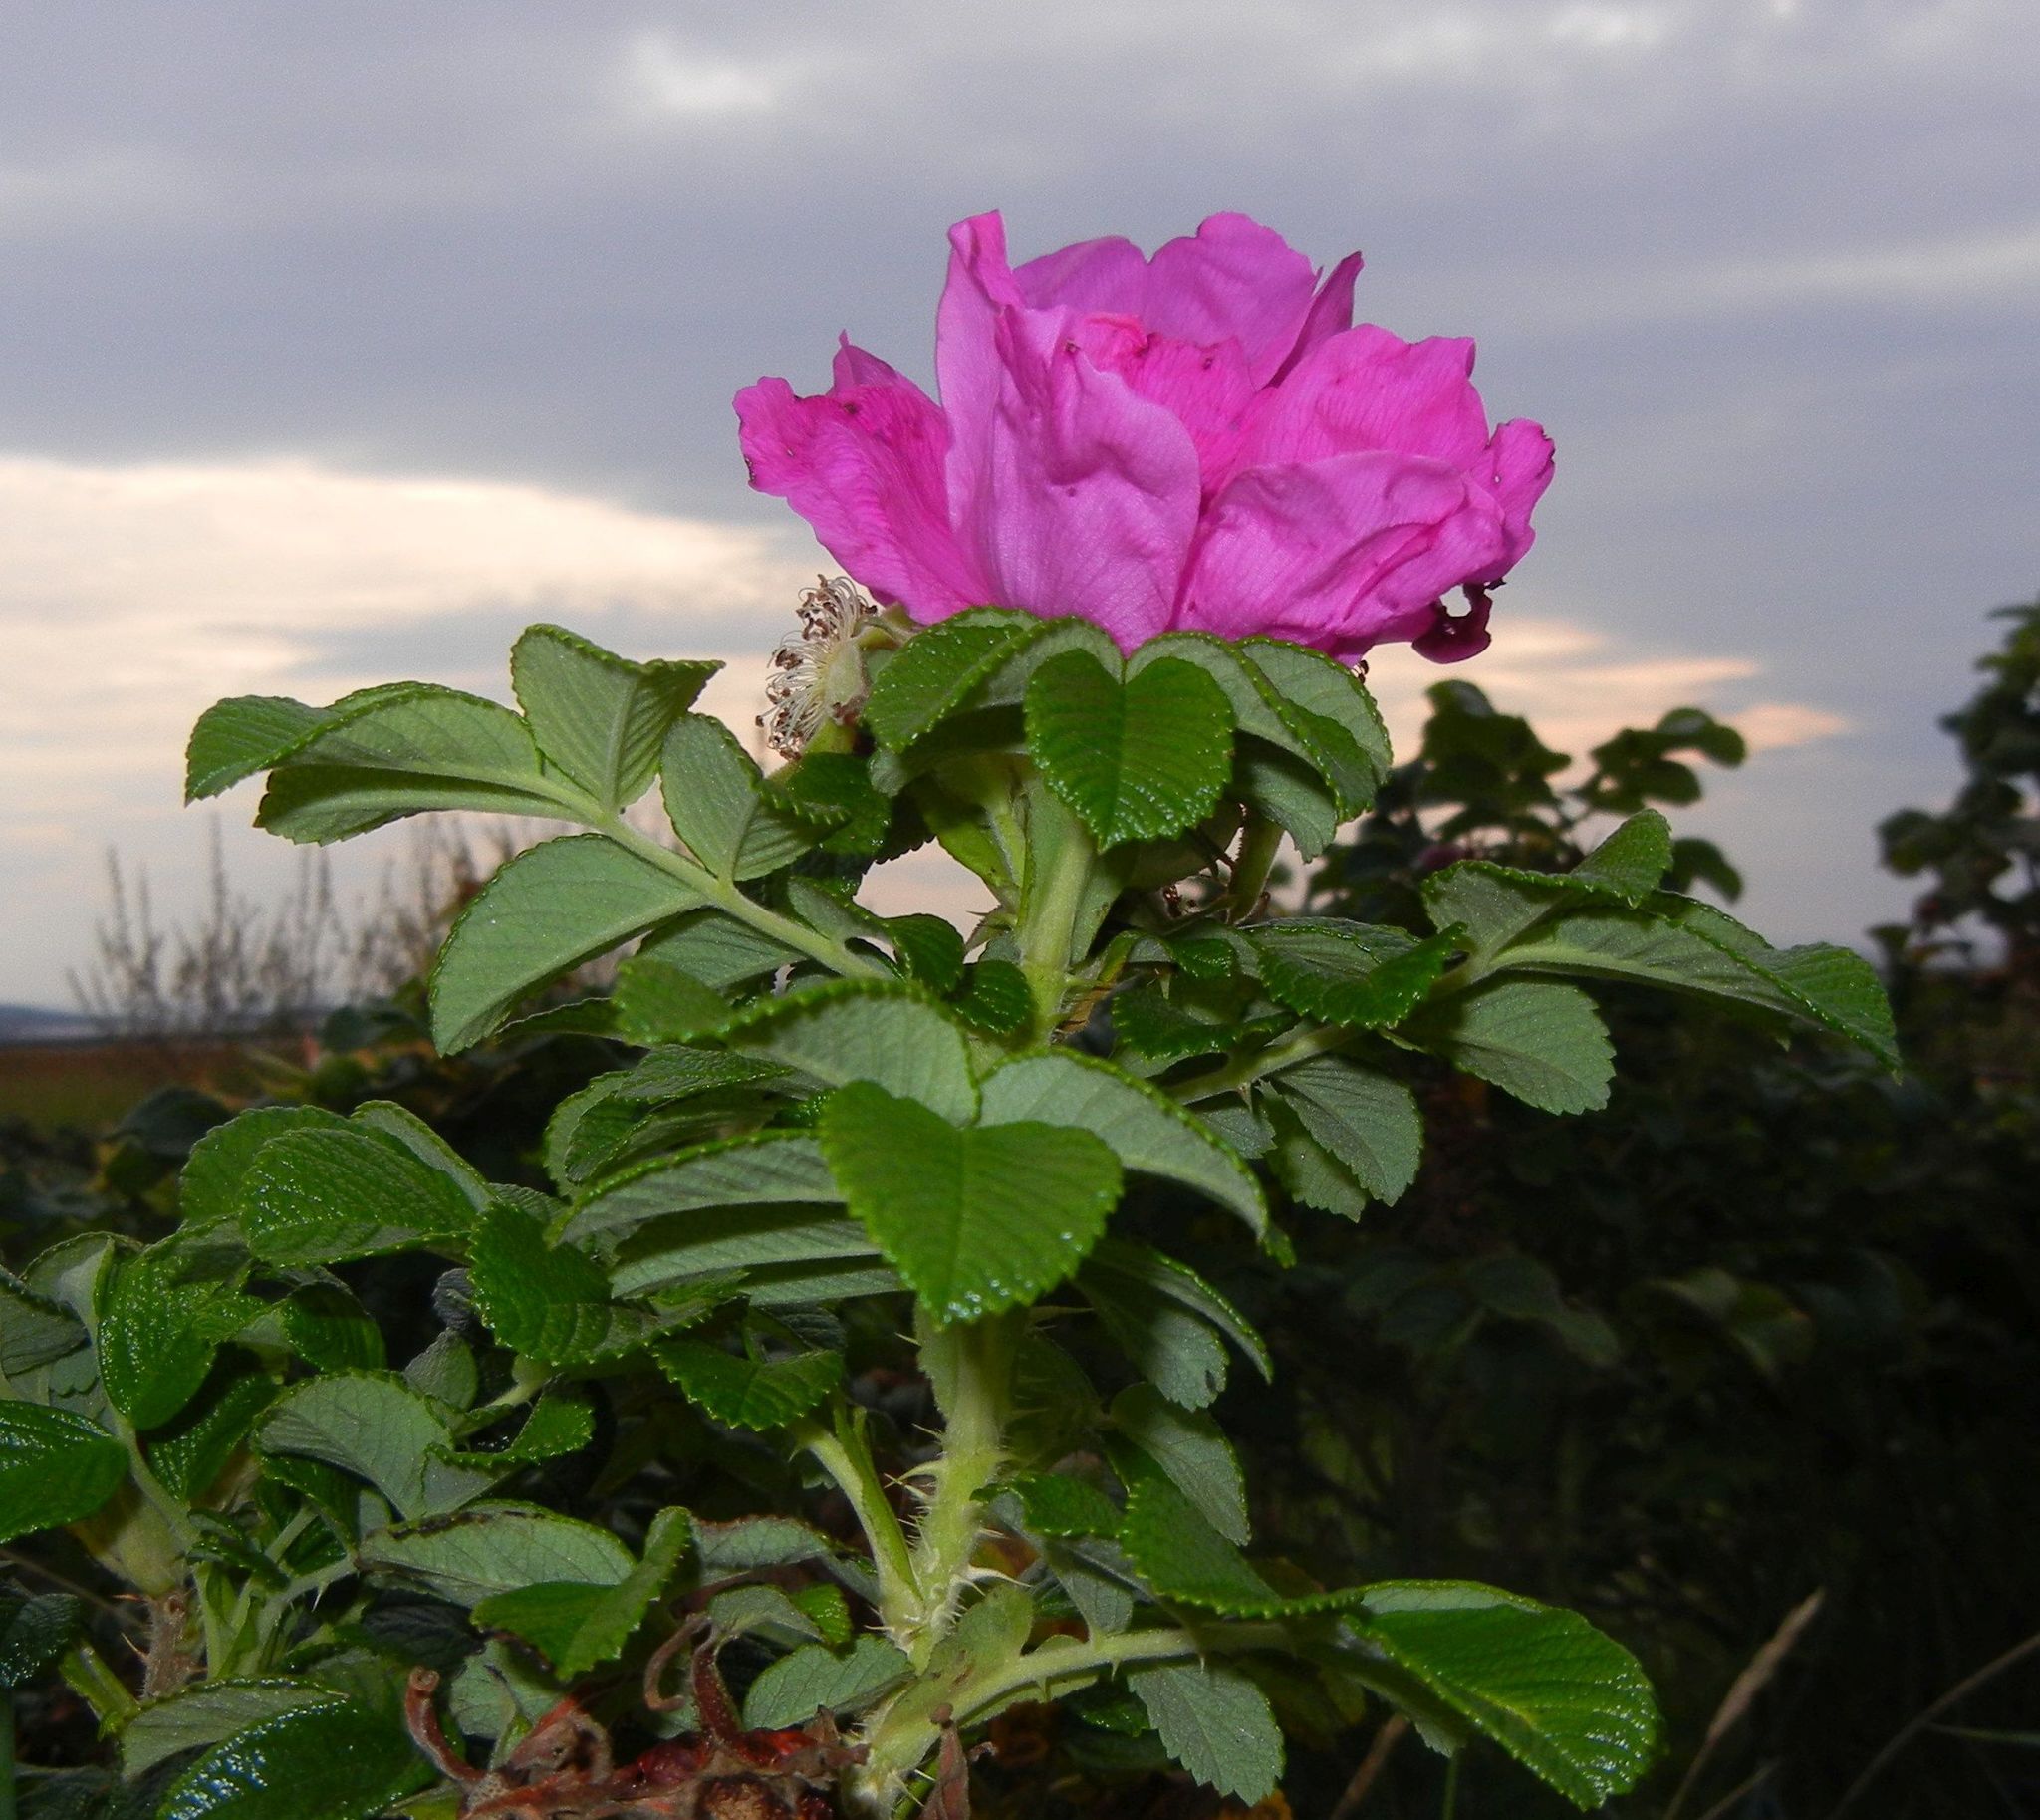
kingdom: Plantae
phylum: Tracheophyta
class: Magnoliopsida
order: Rosales
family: Rosaceae
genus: Rosa
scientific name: Rosa rugosa
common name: Japanese rose
